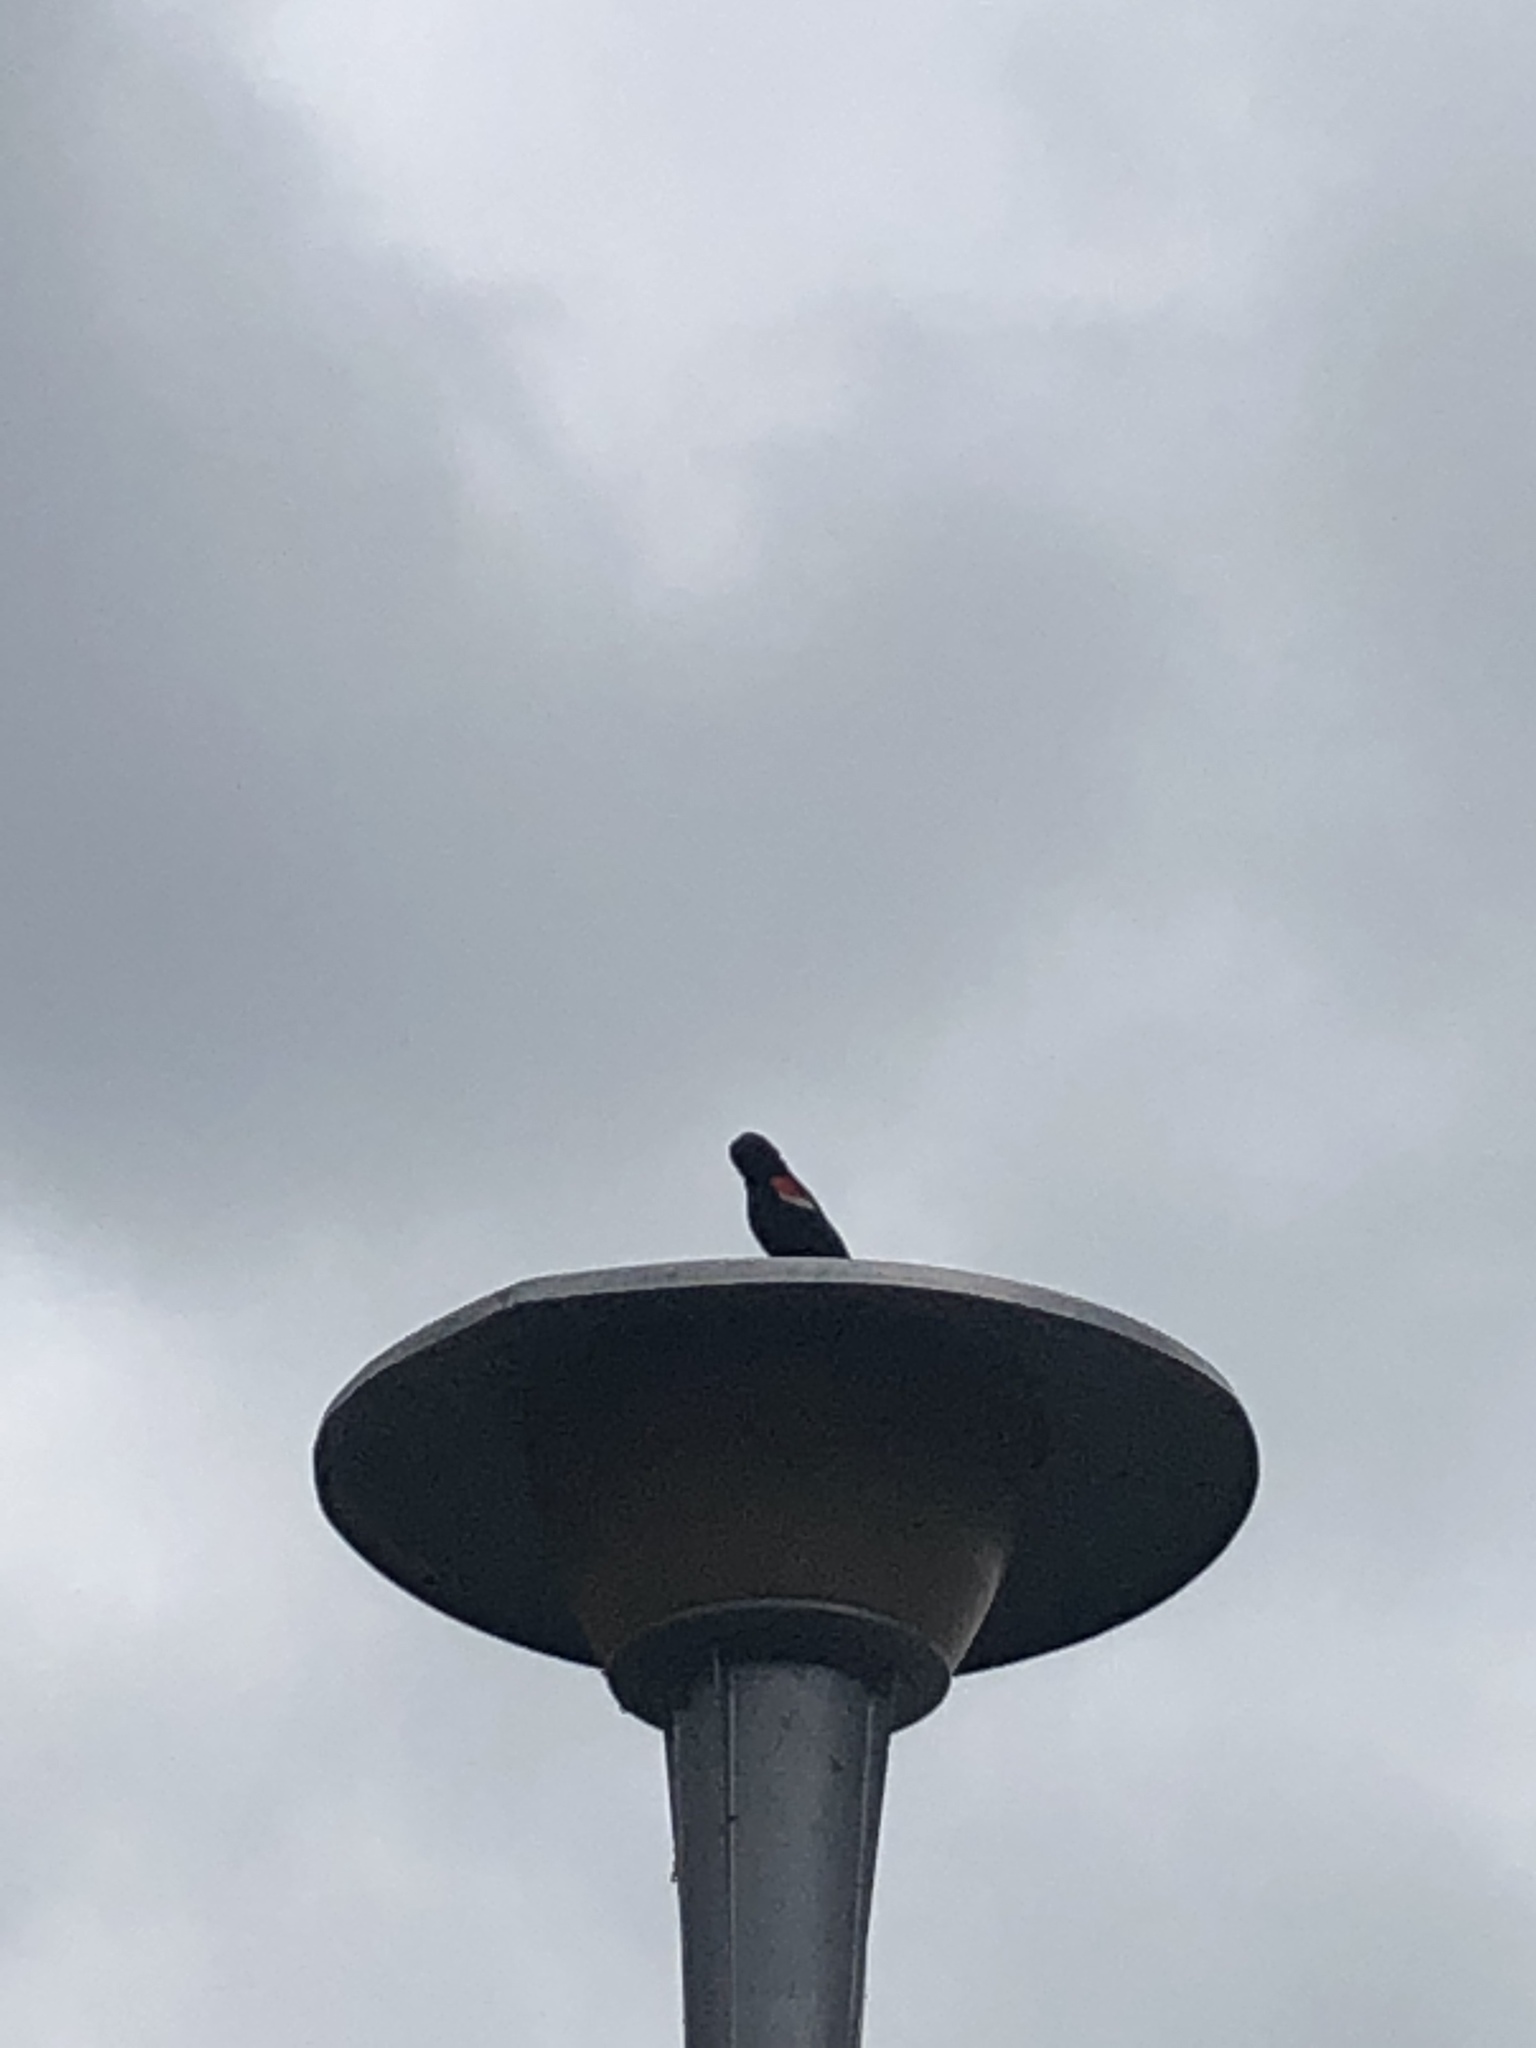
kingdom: Animalia
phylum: Chordata
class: Aves
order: Passeriformes
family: Icteridae
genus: Agelaius
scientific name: Agelaius phoeniceus
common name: Red-winged blackbird
